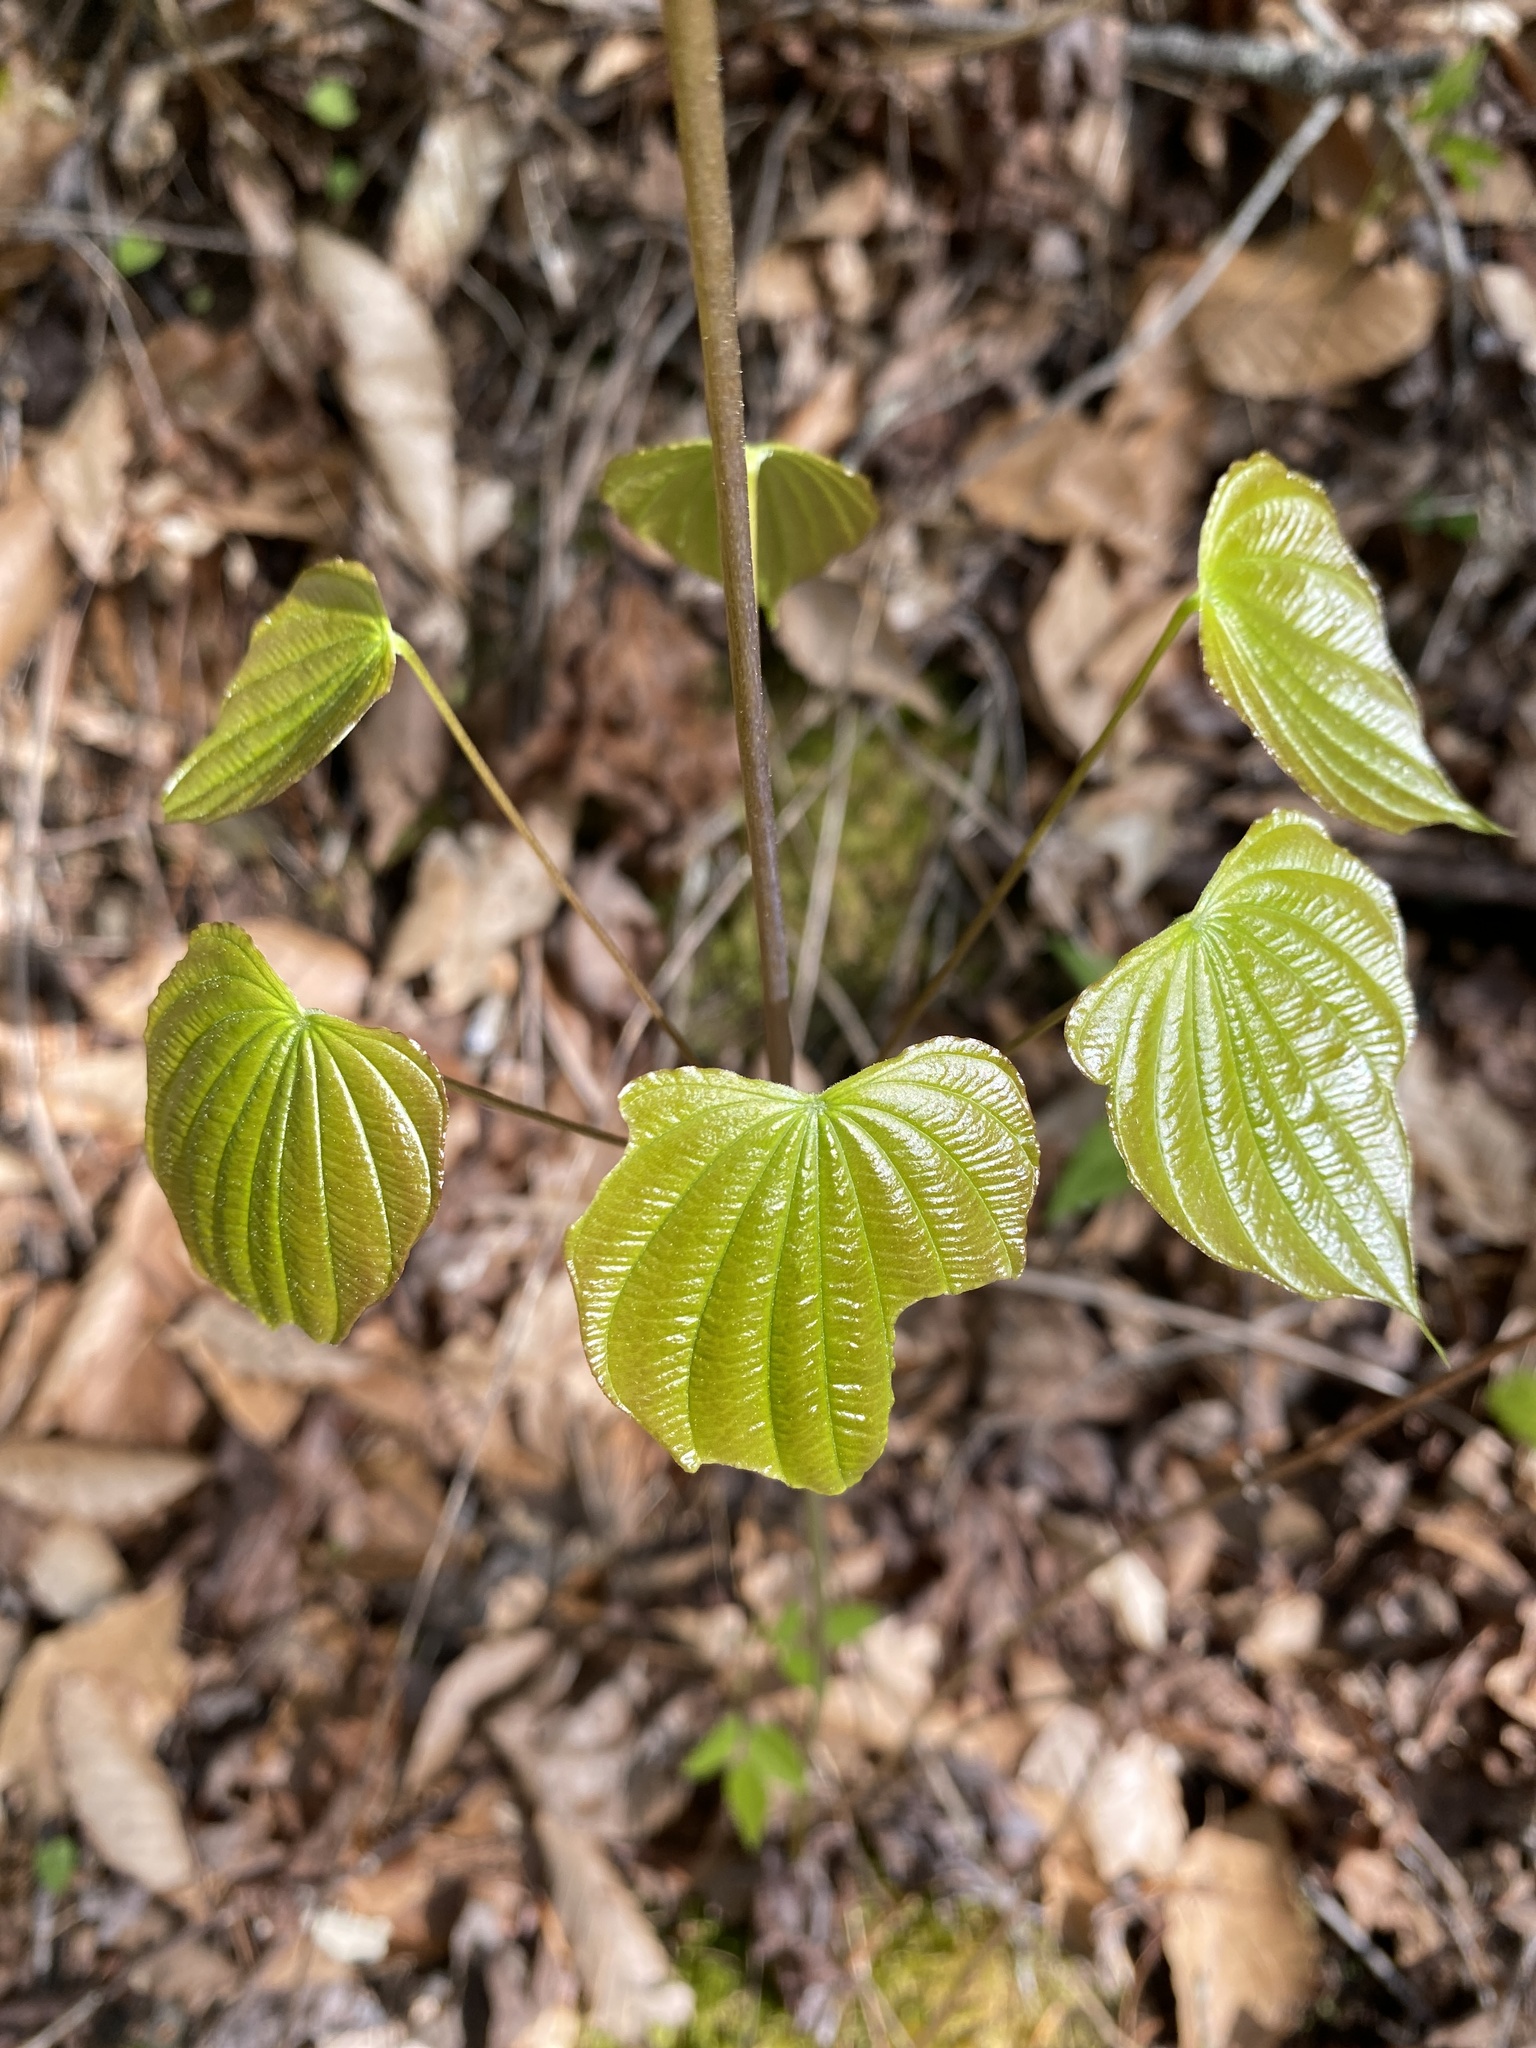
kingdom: Plantae
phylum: Tracheophyta
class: Liliopsida
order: Dioscoreales
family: Dioscoreaceae
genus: Dioscorea
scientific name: Dioscorea villosa
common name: Wild yam
